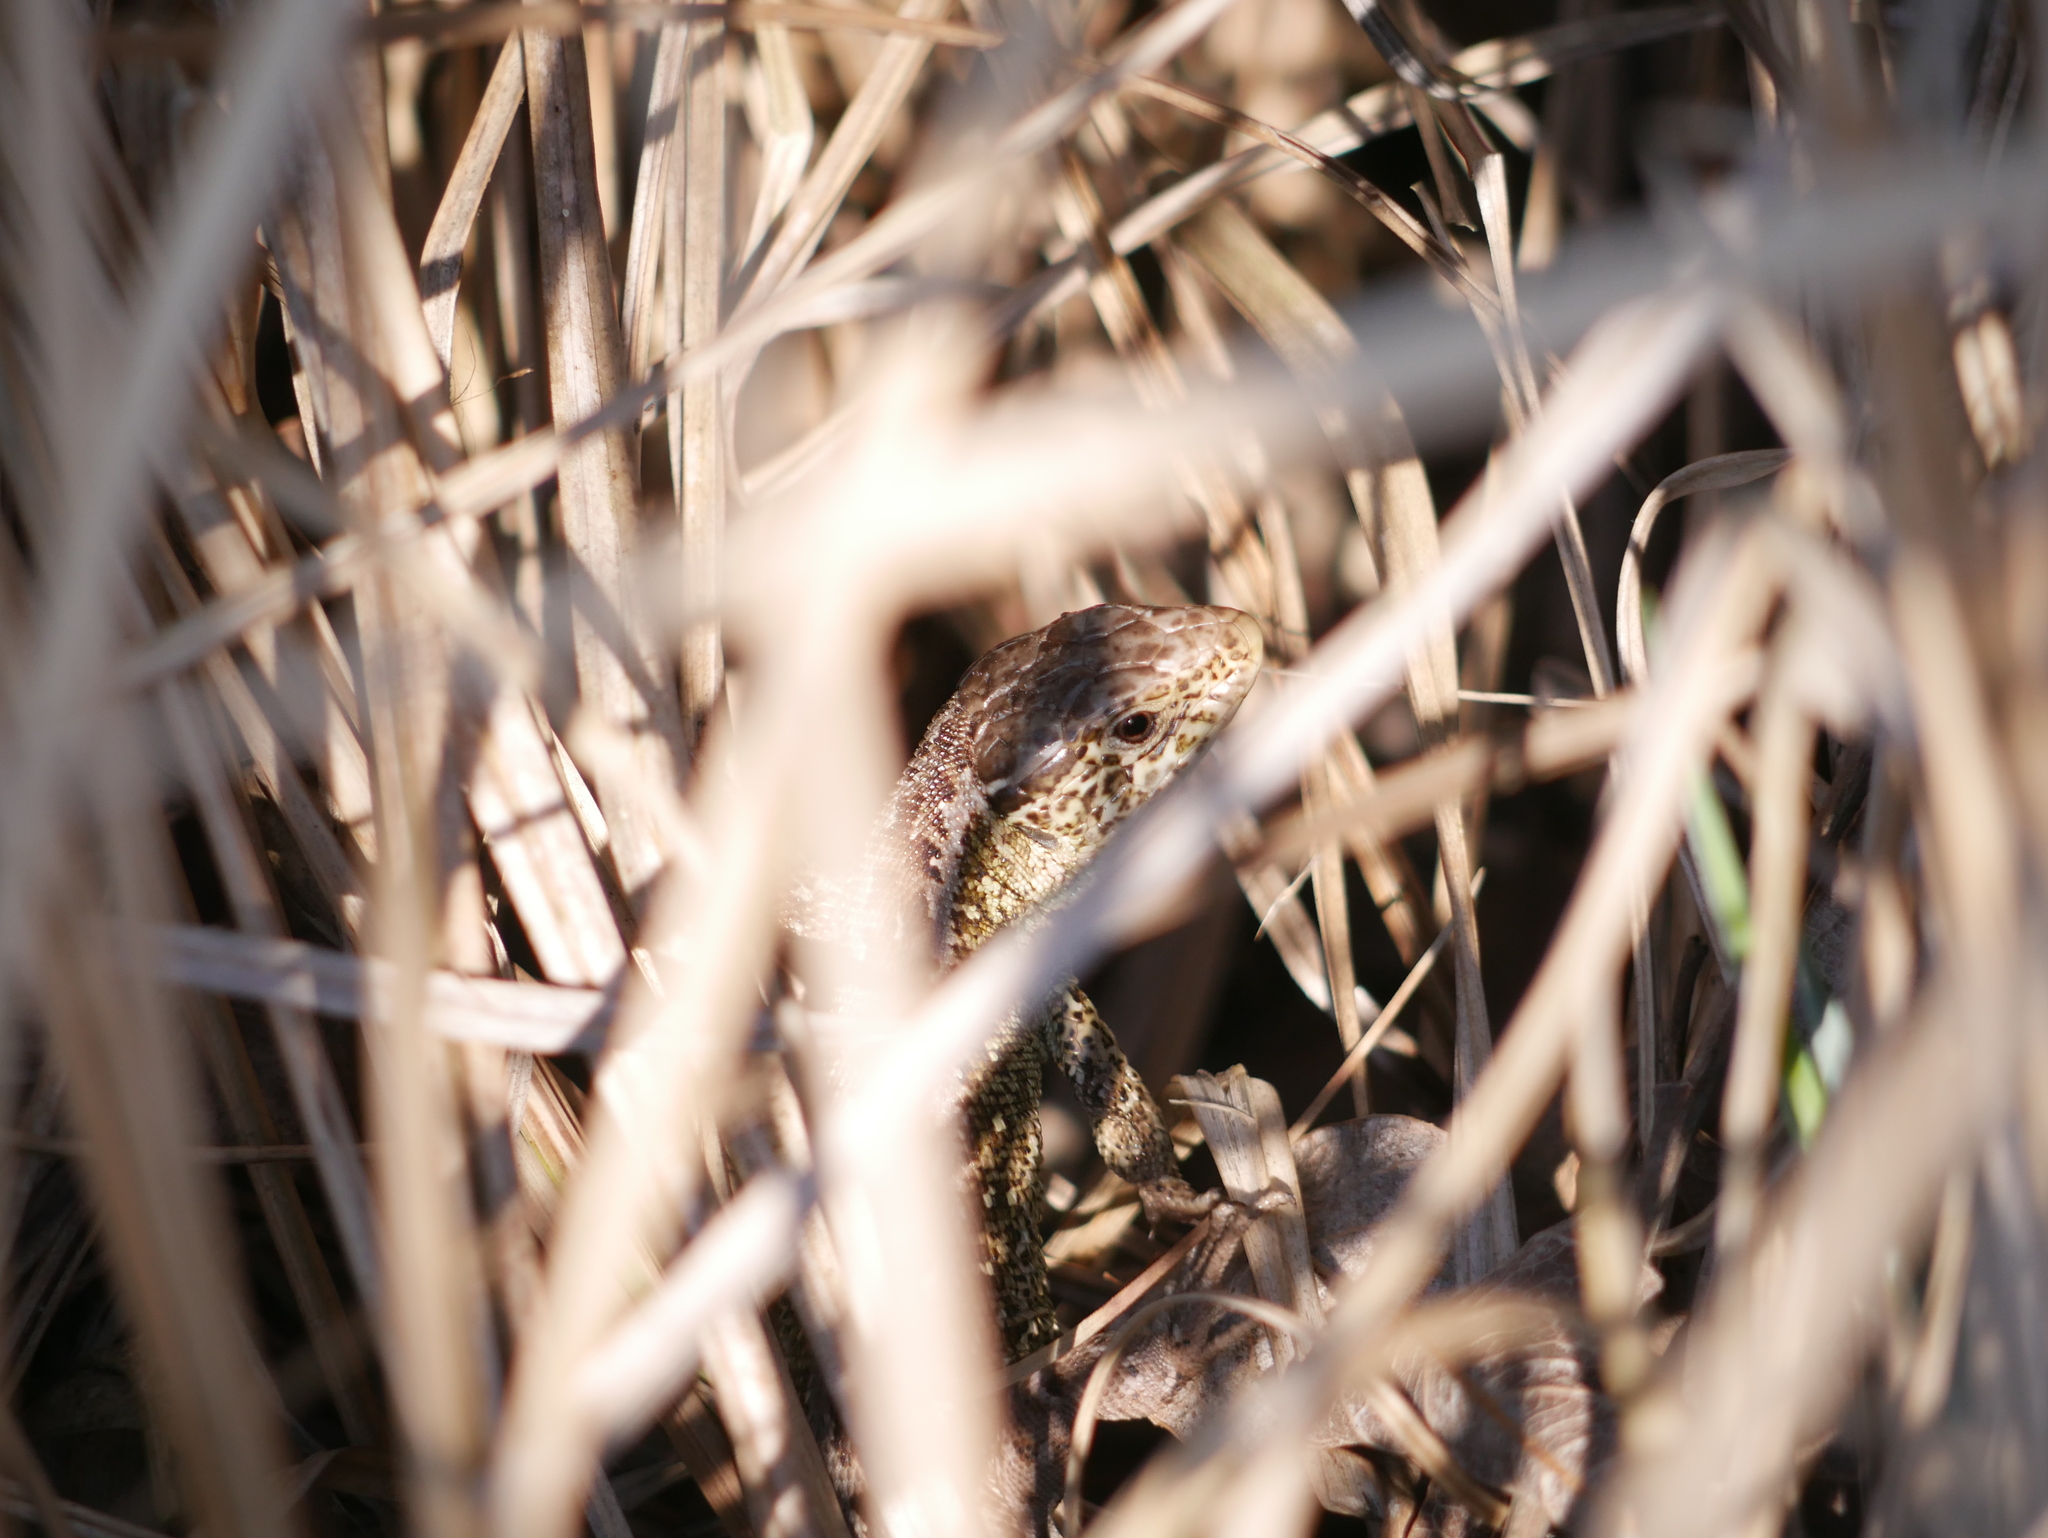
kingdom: Animalia
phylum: Chordata
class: Squamata
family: Lacertidae
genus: Lacerta
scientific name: Lacerta agilis
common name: Sand lizard
